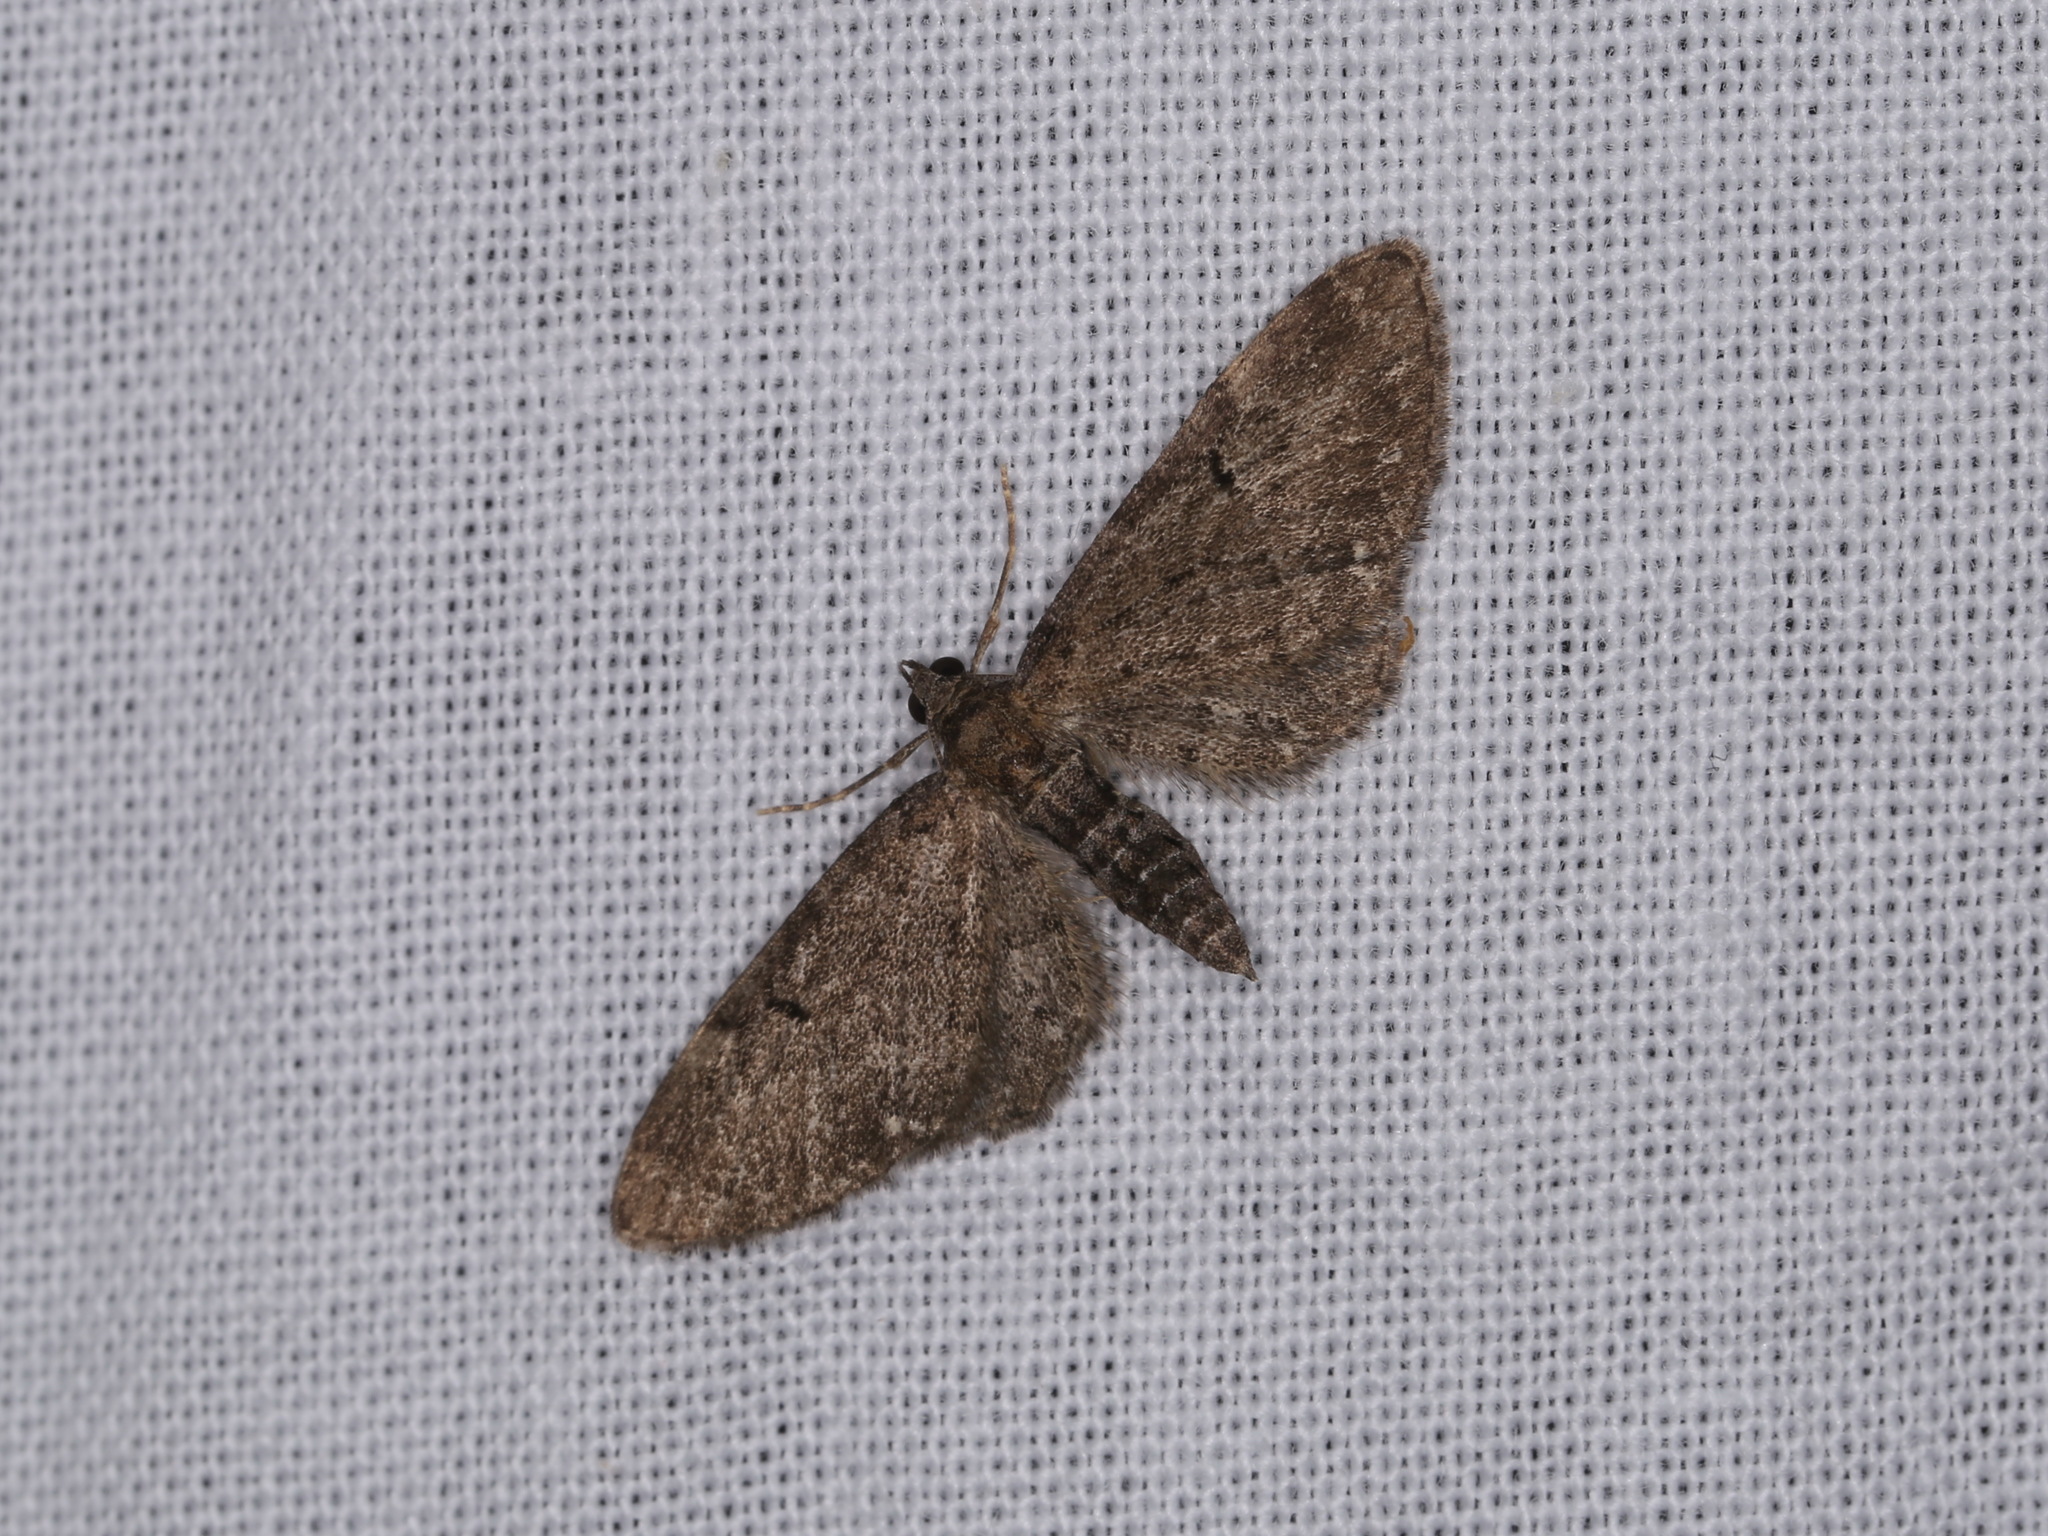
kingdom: Animalia
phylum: Arthropoda
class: Insecta
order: Lepidoptera
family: Geometridae
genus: Eupithecia
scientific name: Eupithecia vulgata
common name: Common pug
